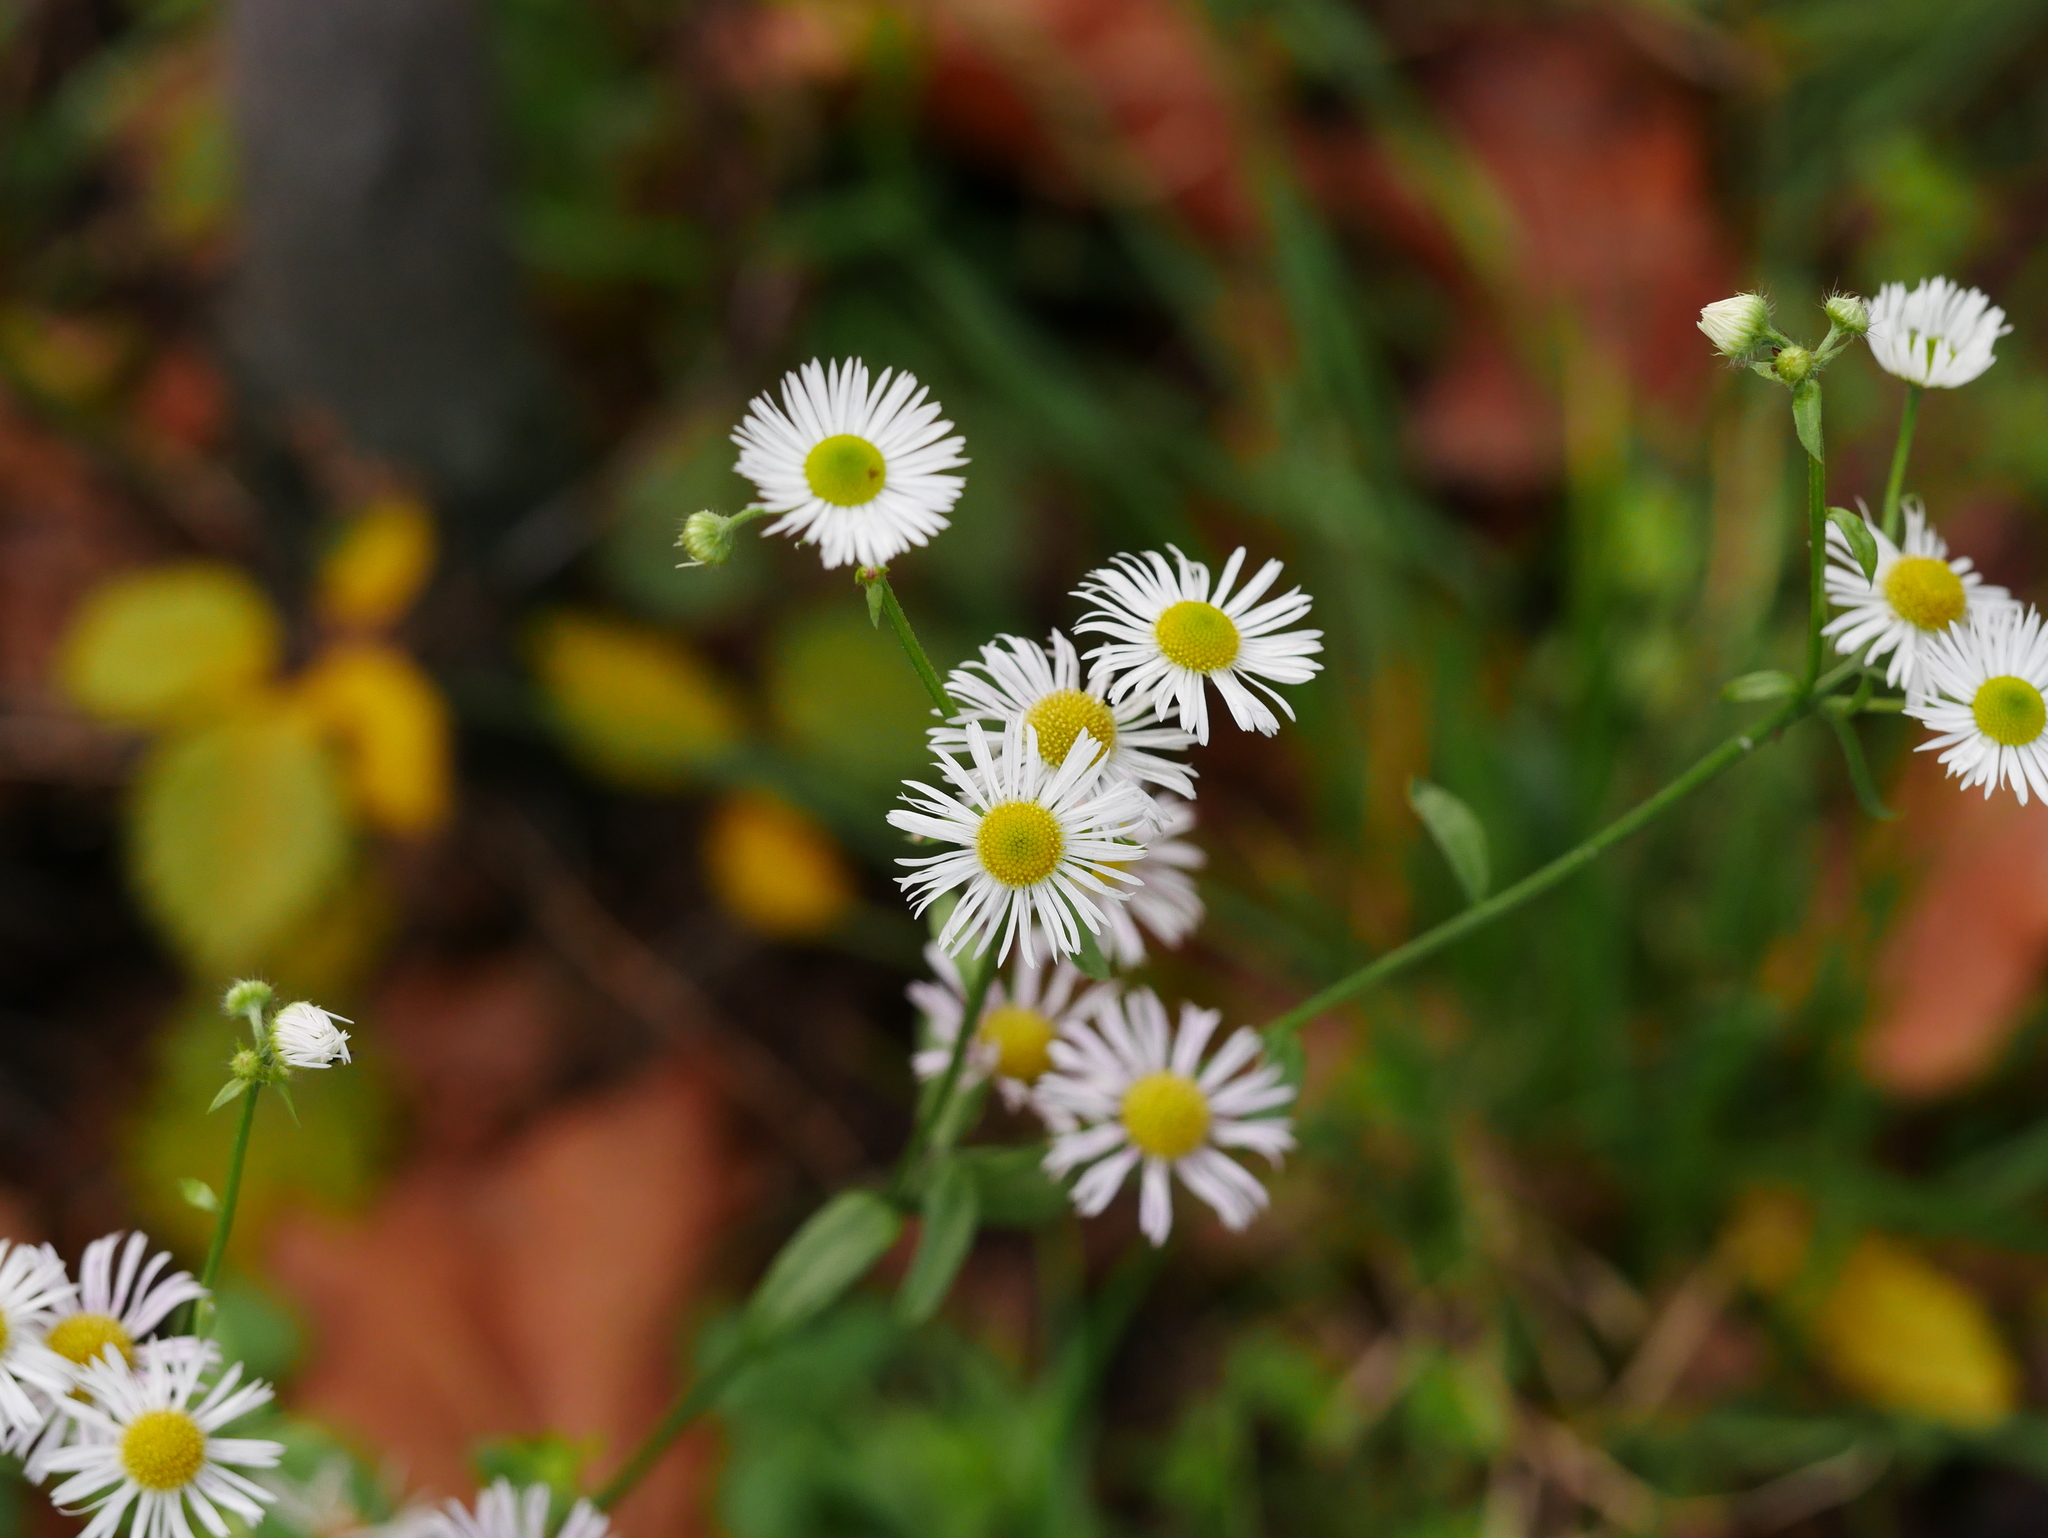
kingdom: Plantae
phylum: Tracheophyta
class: Magnoliopsida
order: Asterales
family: Asteraceae
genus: Erigeron
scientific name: Erigeron annuus
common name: Tall fleabane
